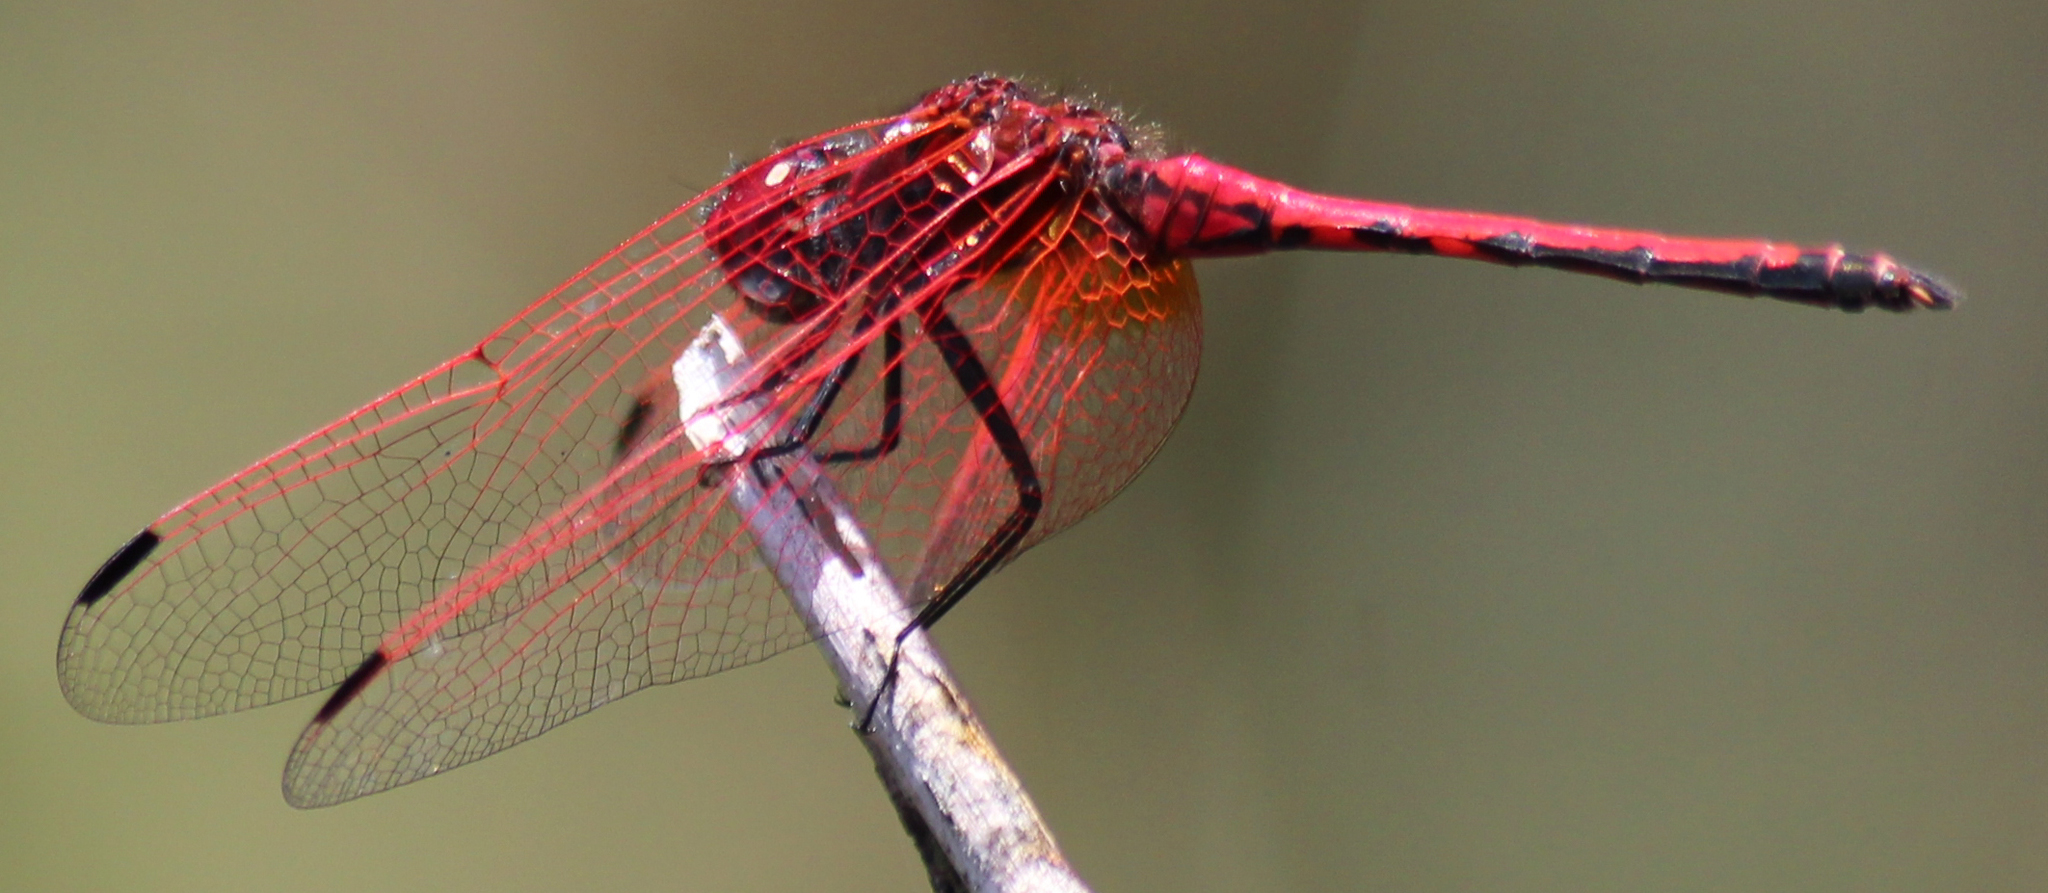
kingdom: Animalia
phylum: Arthropoda
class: Insecta
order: Odonata
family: Libellulidae
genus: Trithemis
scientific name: Trithemis arteriosa
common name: Red-veined dropwing
